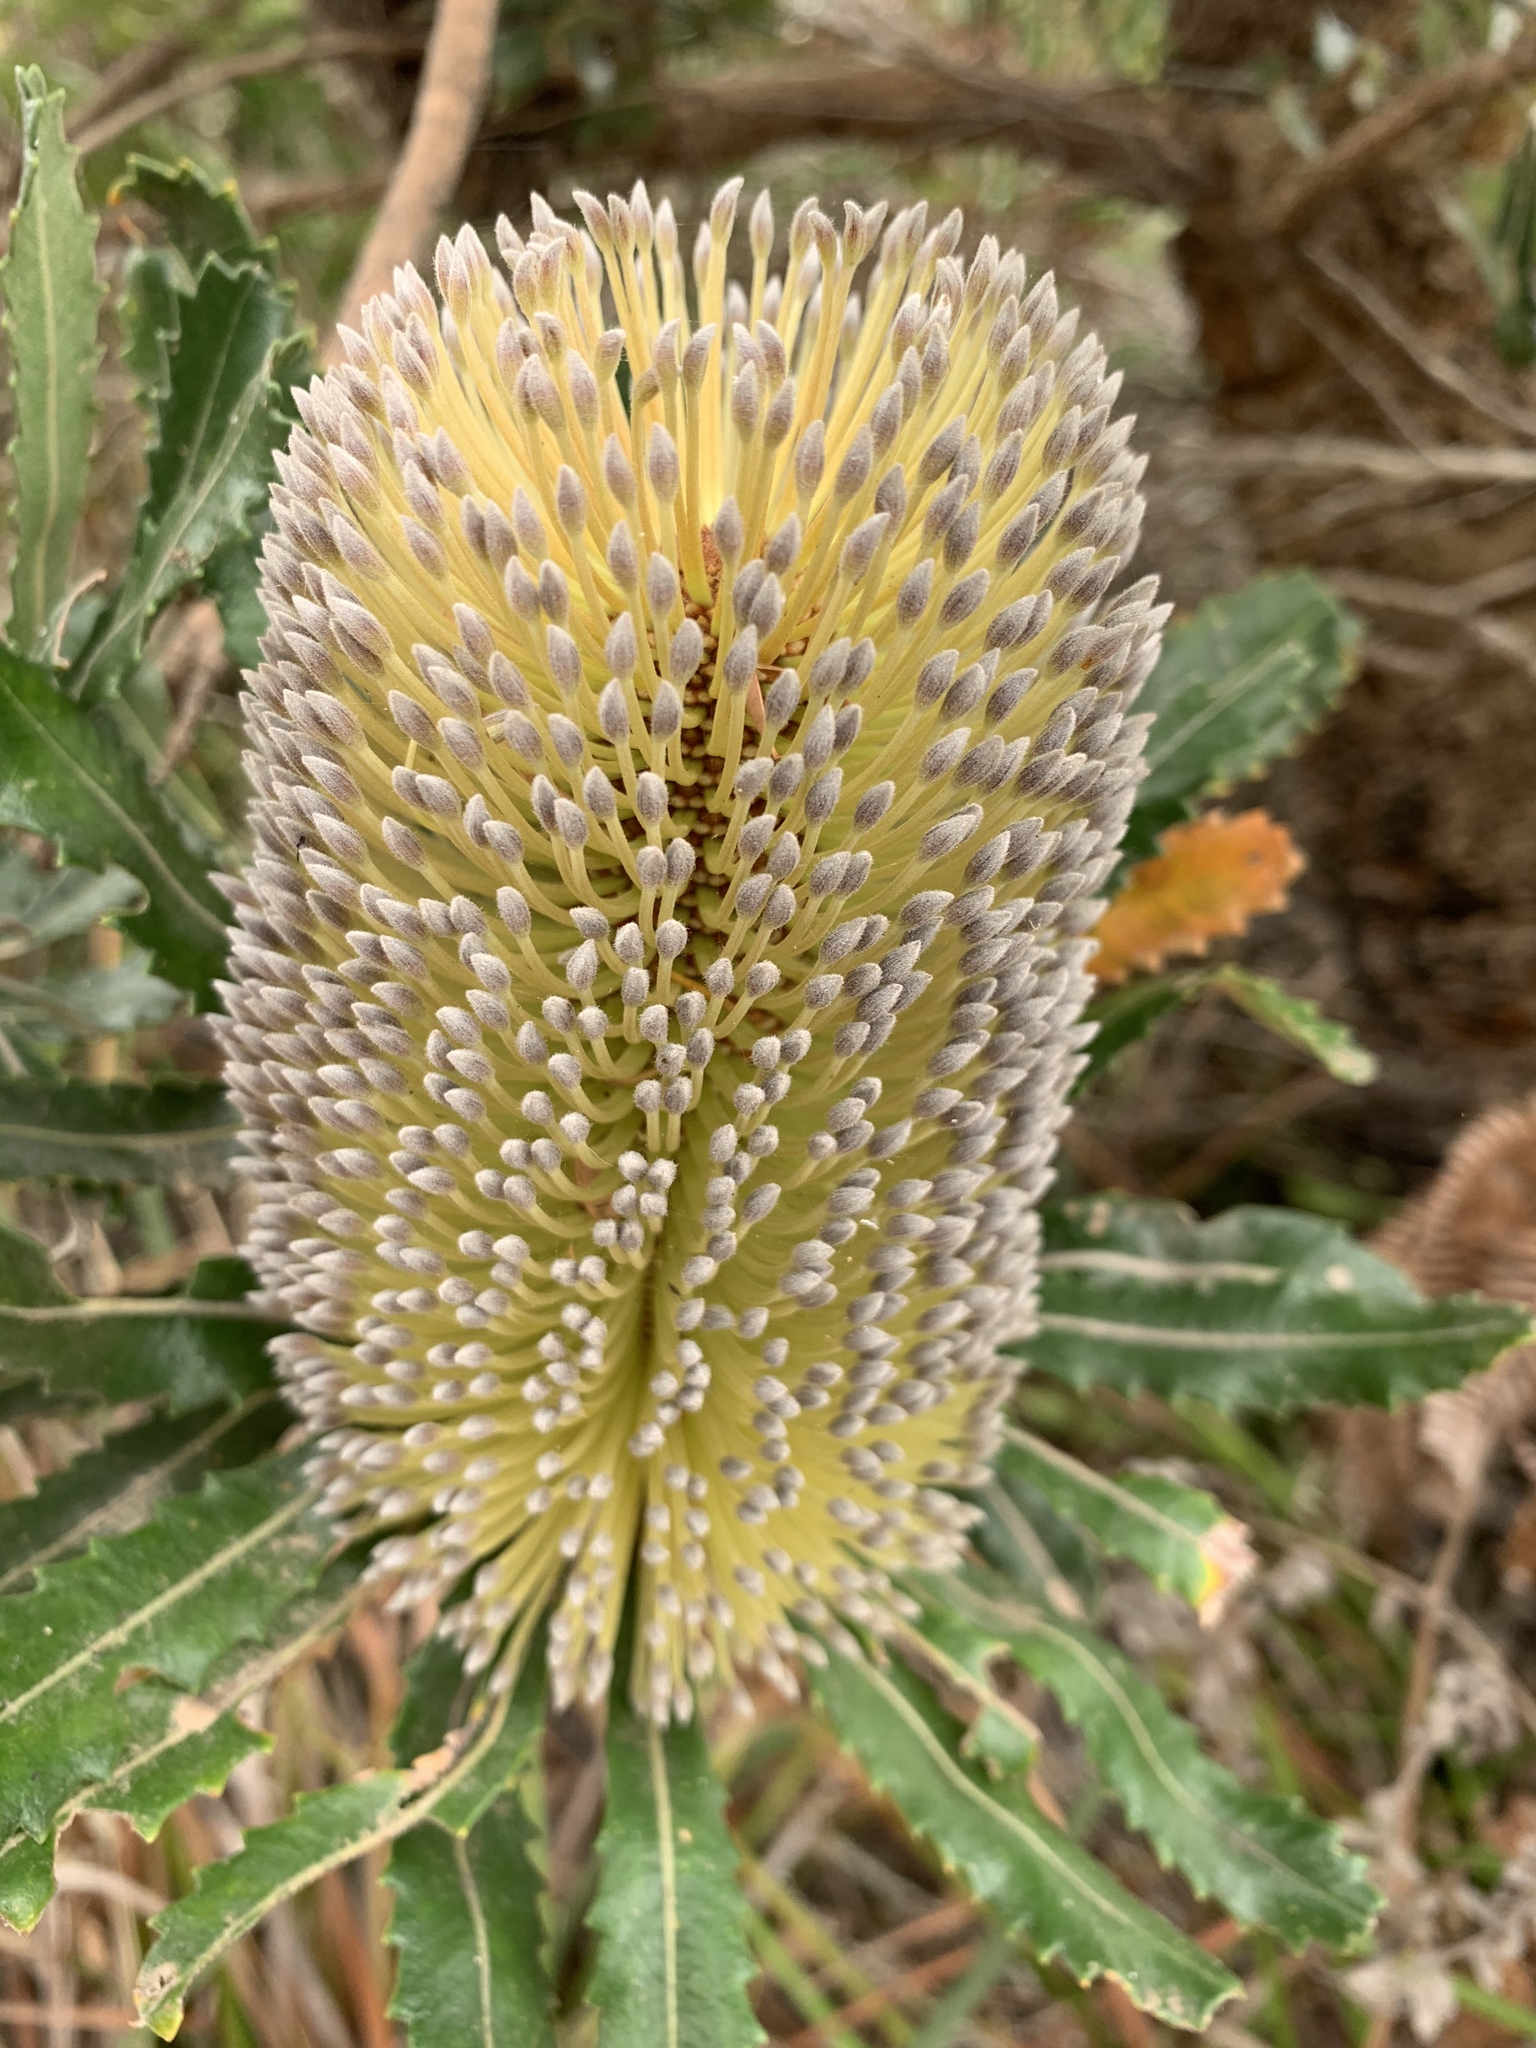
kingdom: Plantae
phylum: Tracheophyta
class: Magnoliopsida
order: Proteales
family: Proteaceae
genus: Banksia
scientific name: Banksia serrata
